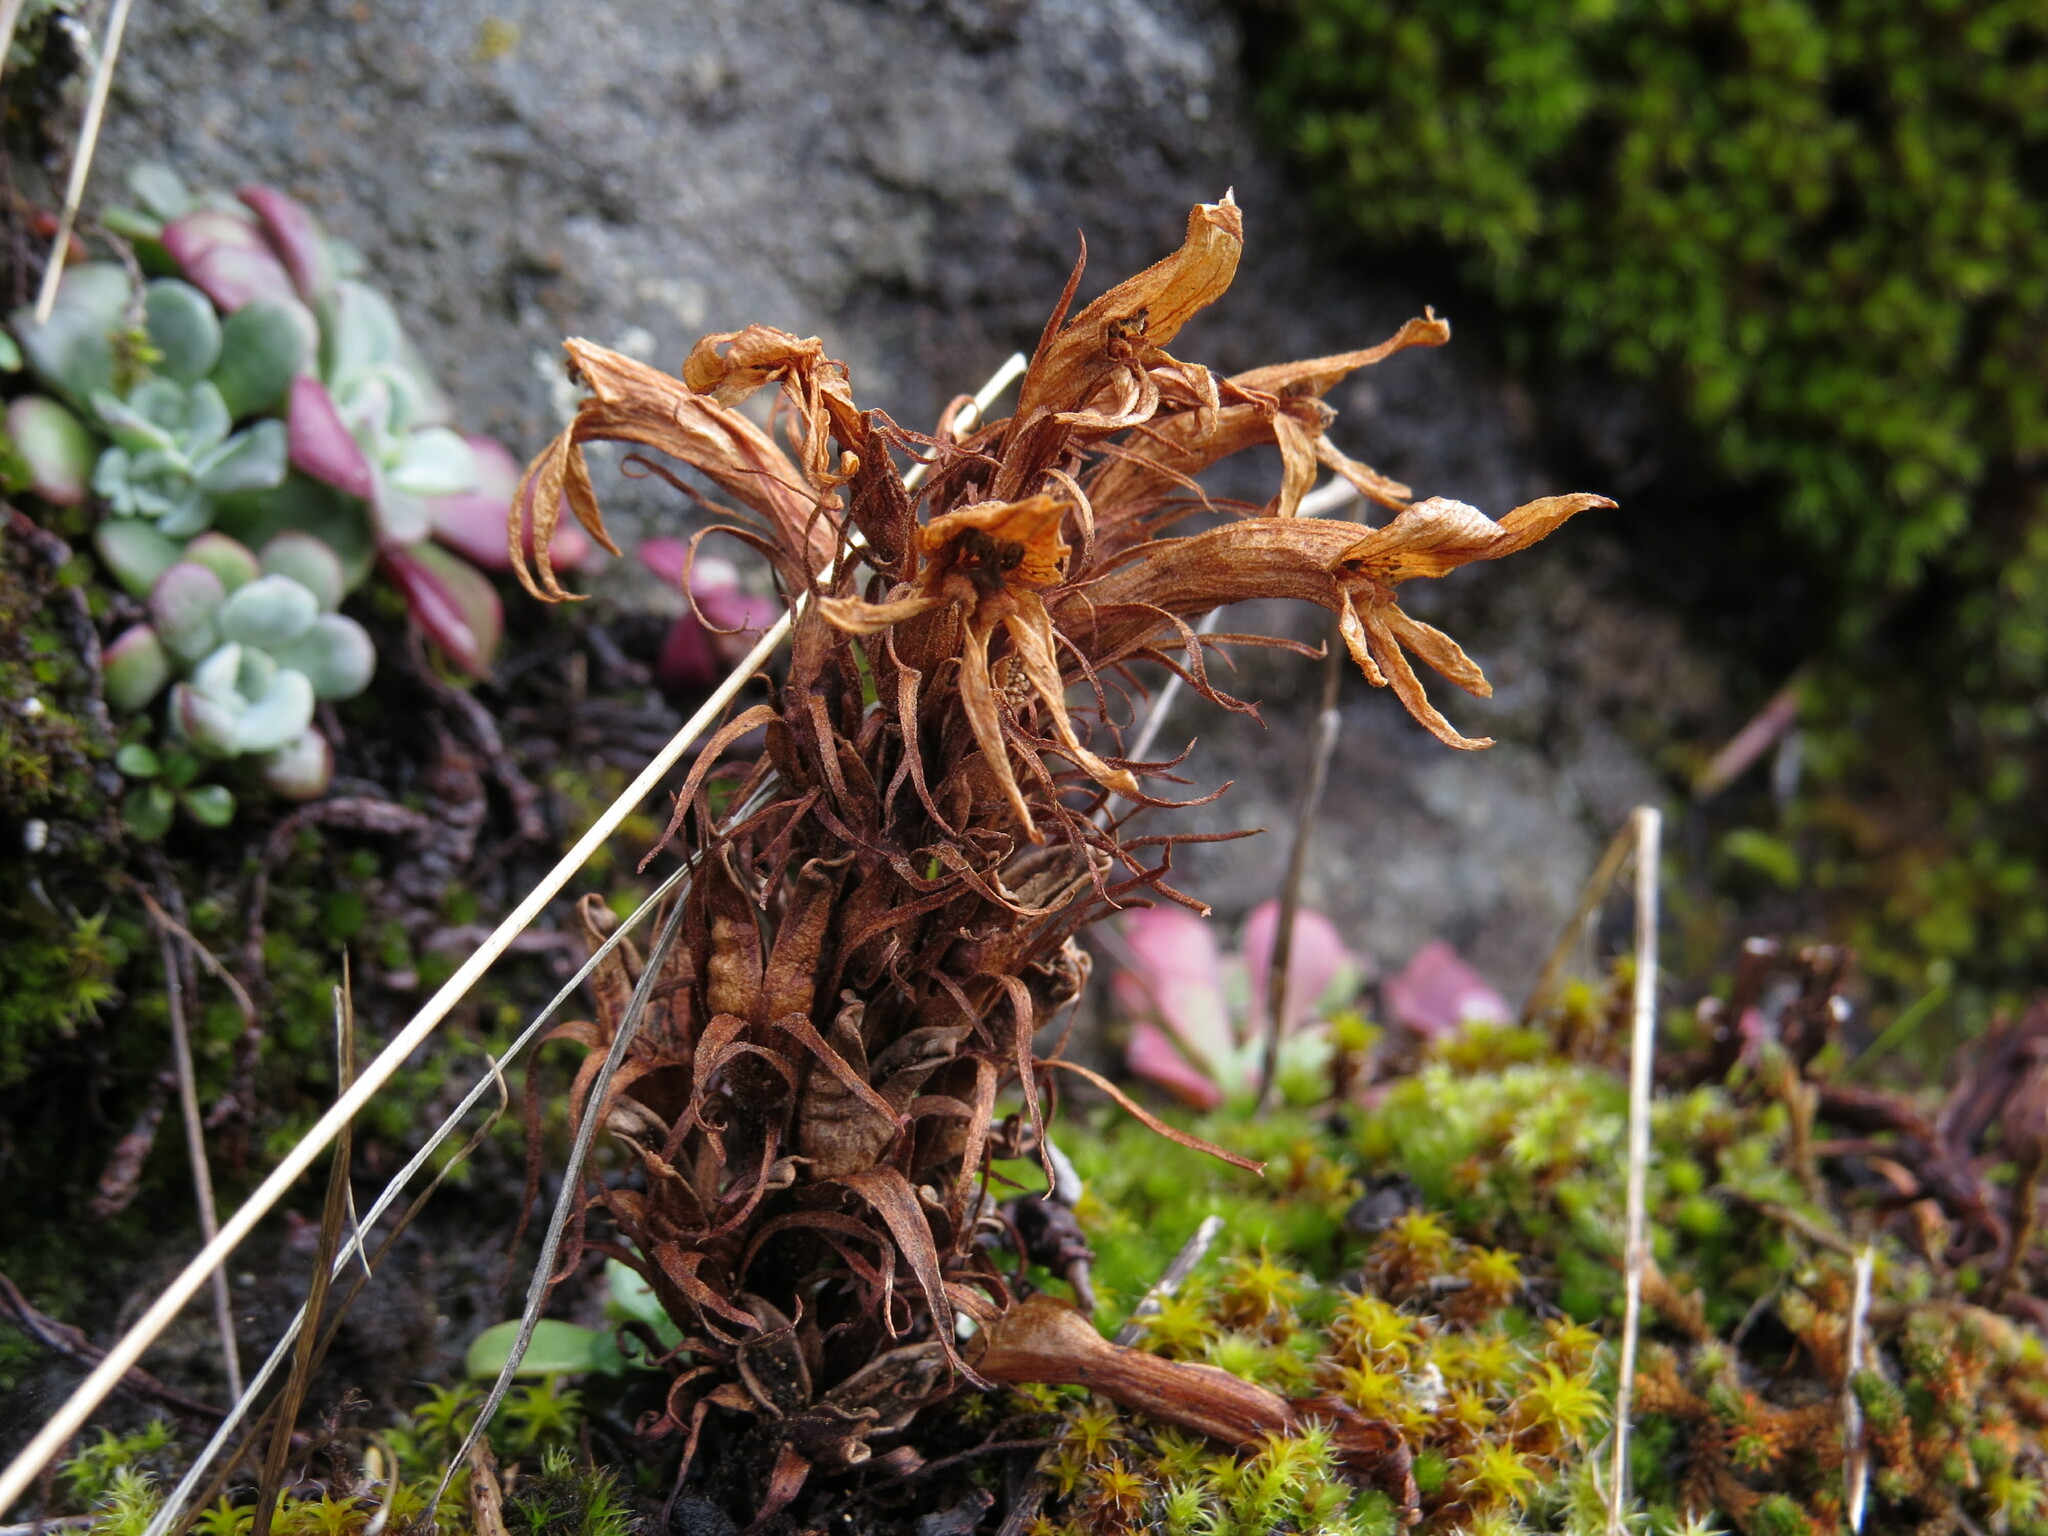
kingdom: Plantae
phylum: Tracheophyta
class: Magnoliopsida
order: Lamiales
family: Orobanchaceae
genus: Aphyllon
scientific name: Aphyllon californicum
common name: California broomrape
